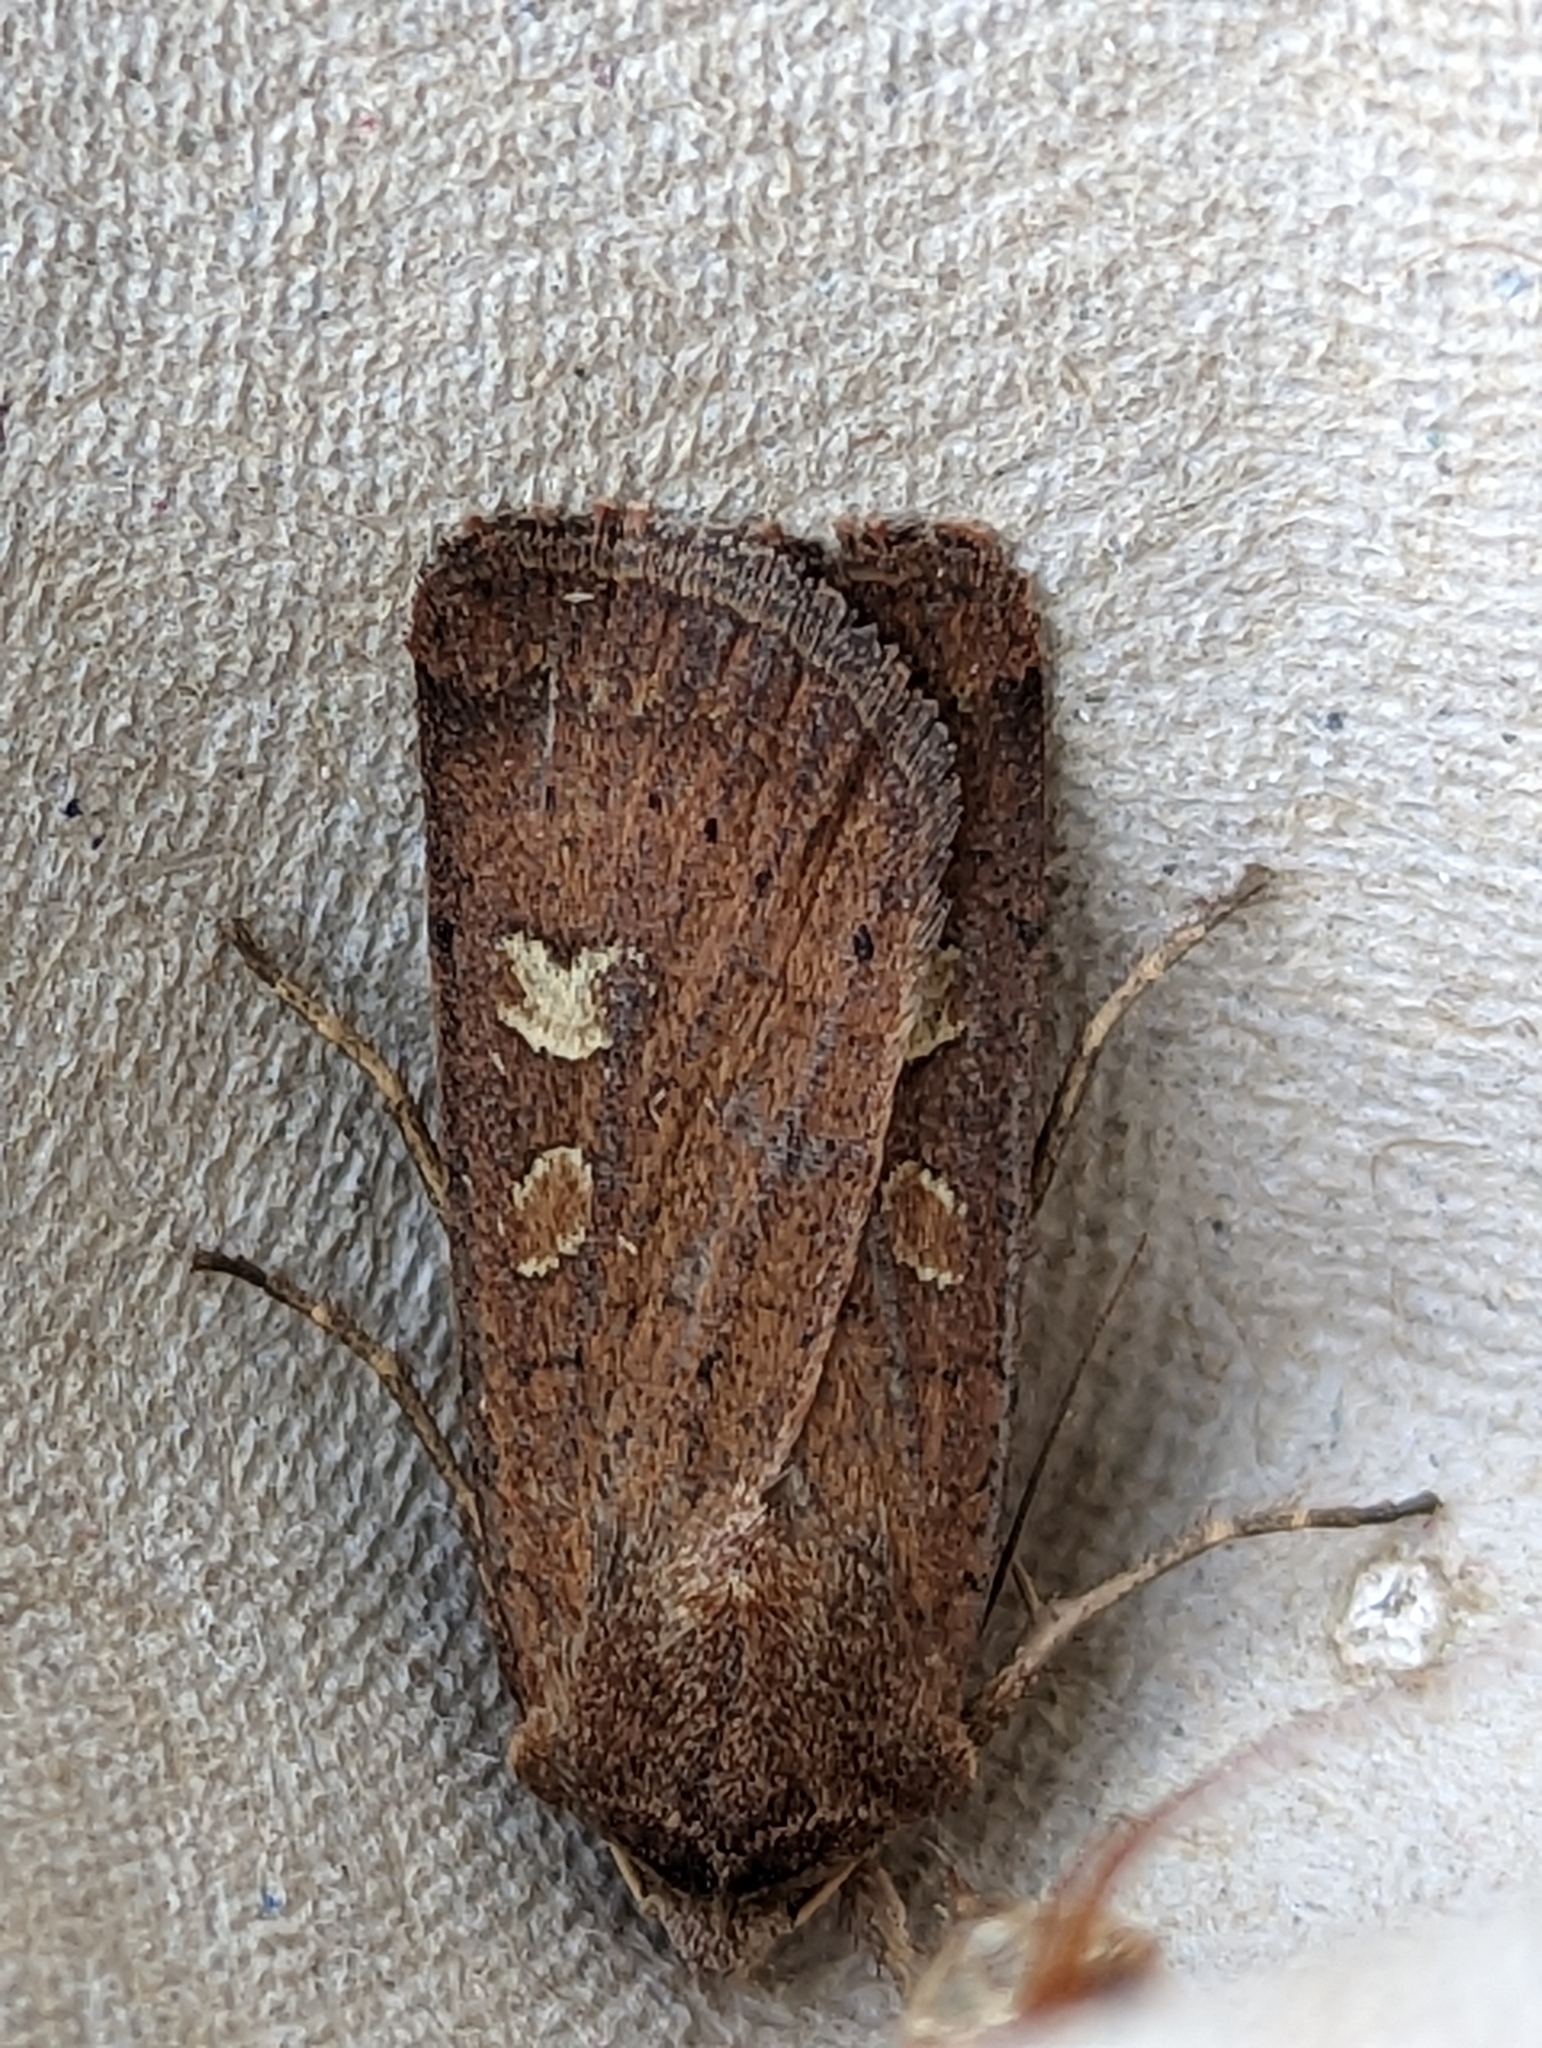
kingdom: Animalia
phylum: Arthropoda
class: Insecta
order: Lepidoptera
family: Noctuidae
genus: Xestia
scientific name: Xestia xanthographa
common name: Square-spot rustic
